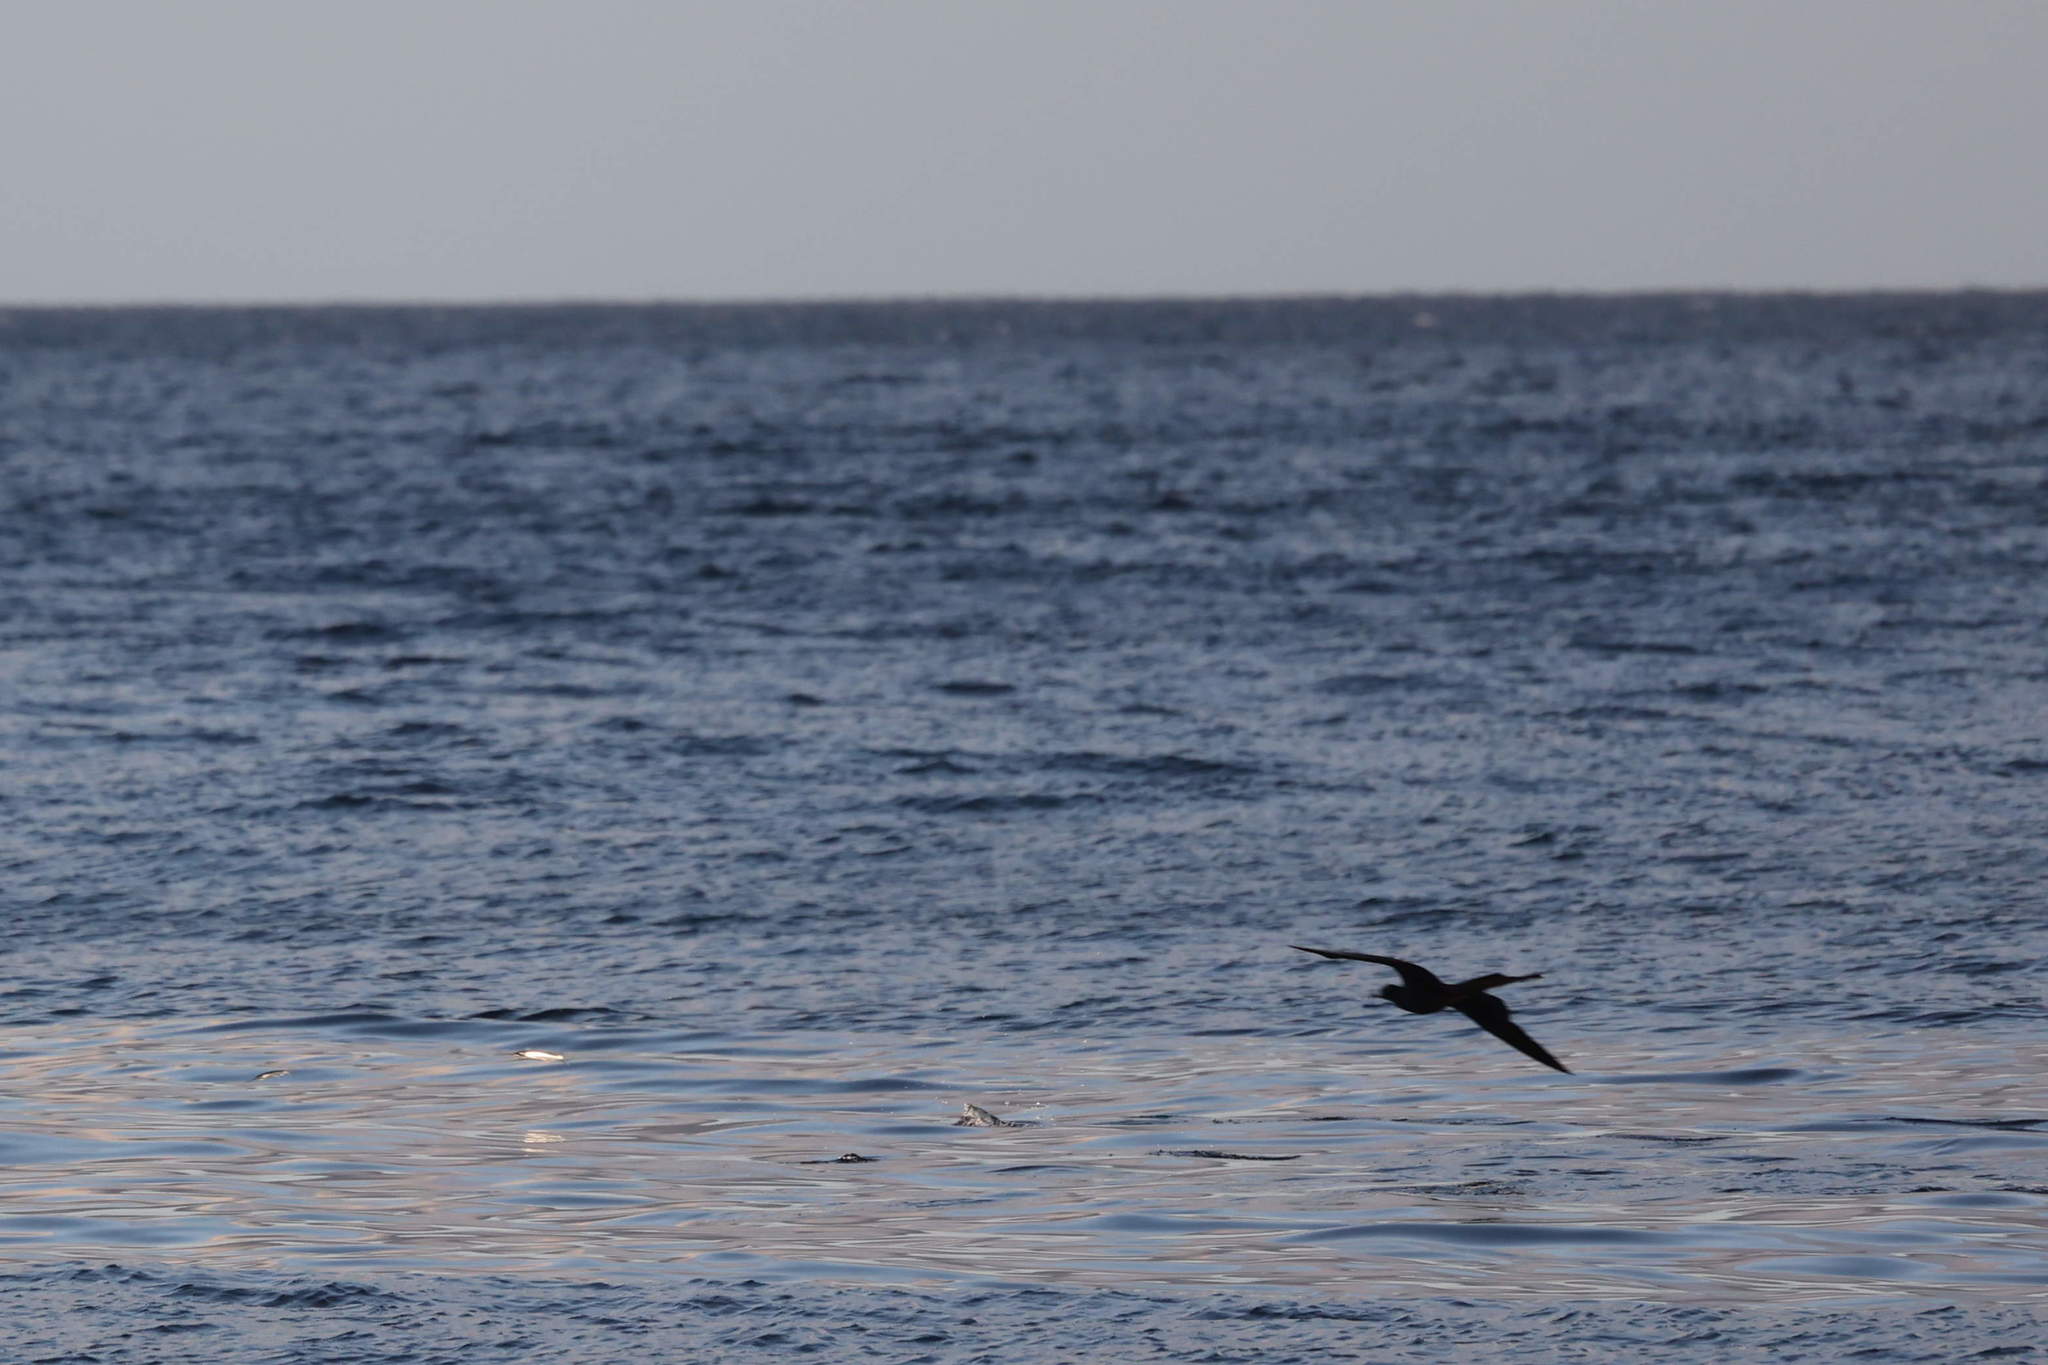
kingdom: Animalia
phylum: Chordata
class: Aves
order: Suliformes
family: Fregatidae
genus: Fregata
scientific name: Fregata magnificens
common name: Magnificent frigatebird
